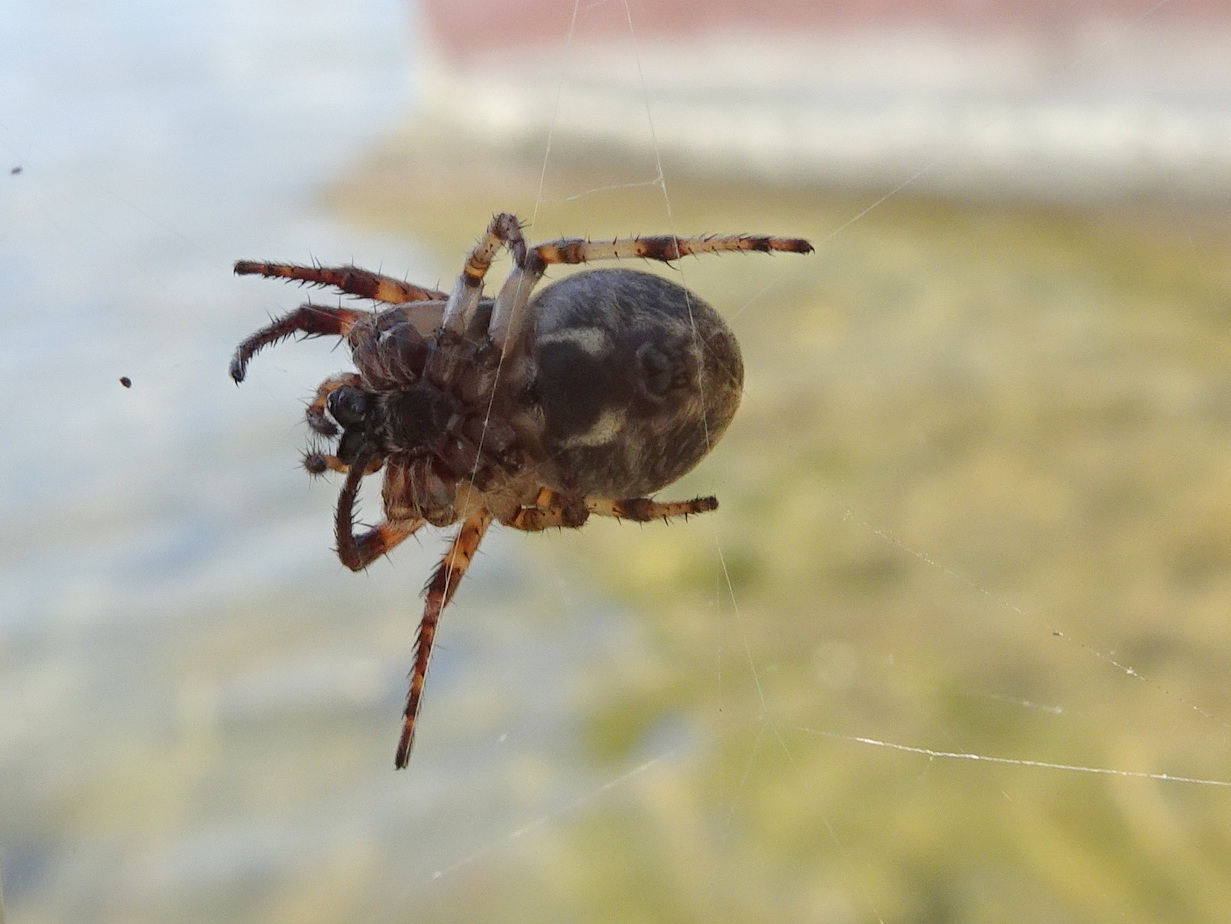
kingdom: Animalia
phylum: Arthropoda
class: Arachnida
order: Araneae
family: Araneidae
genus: Larinioides
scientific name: Larinioides cornutus
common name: Furrow orbweaver
